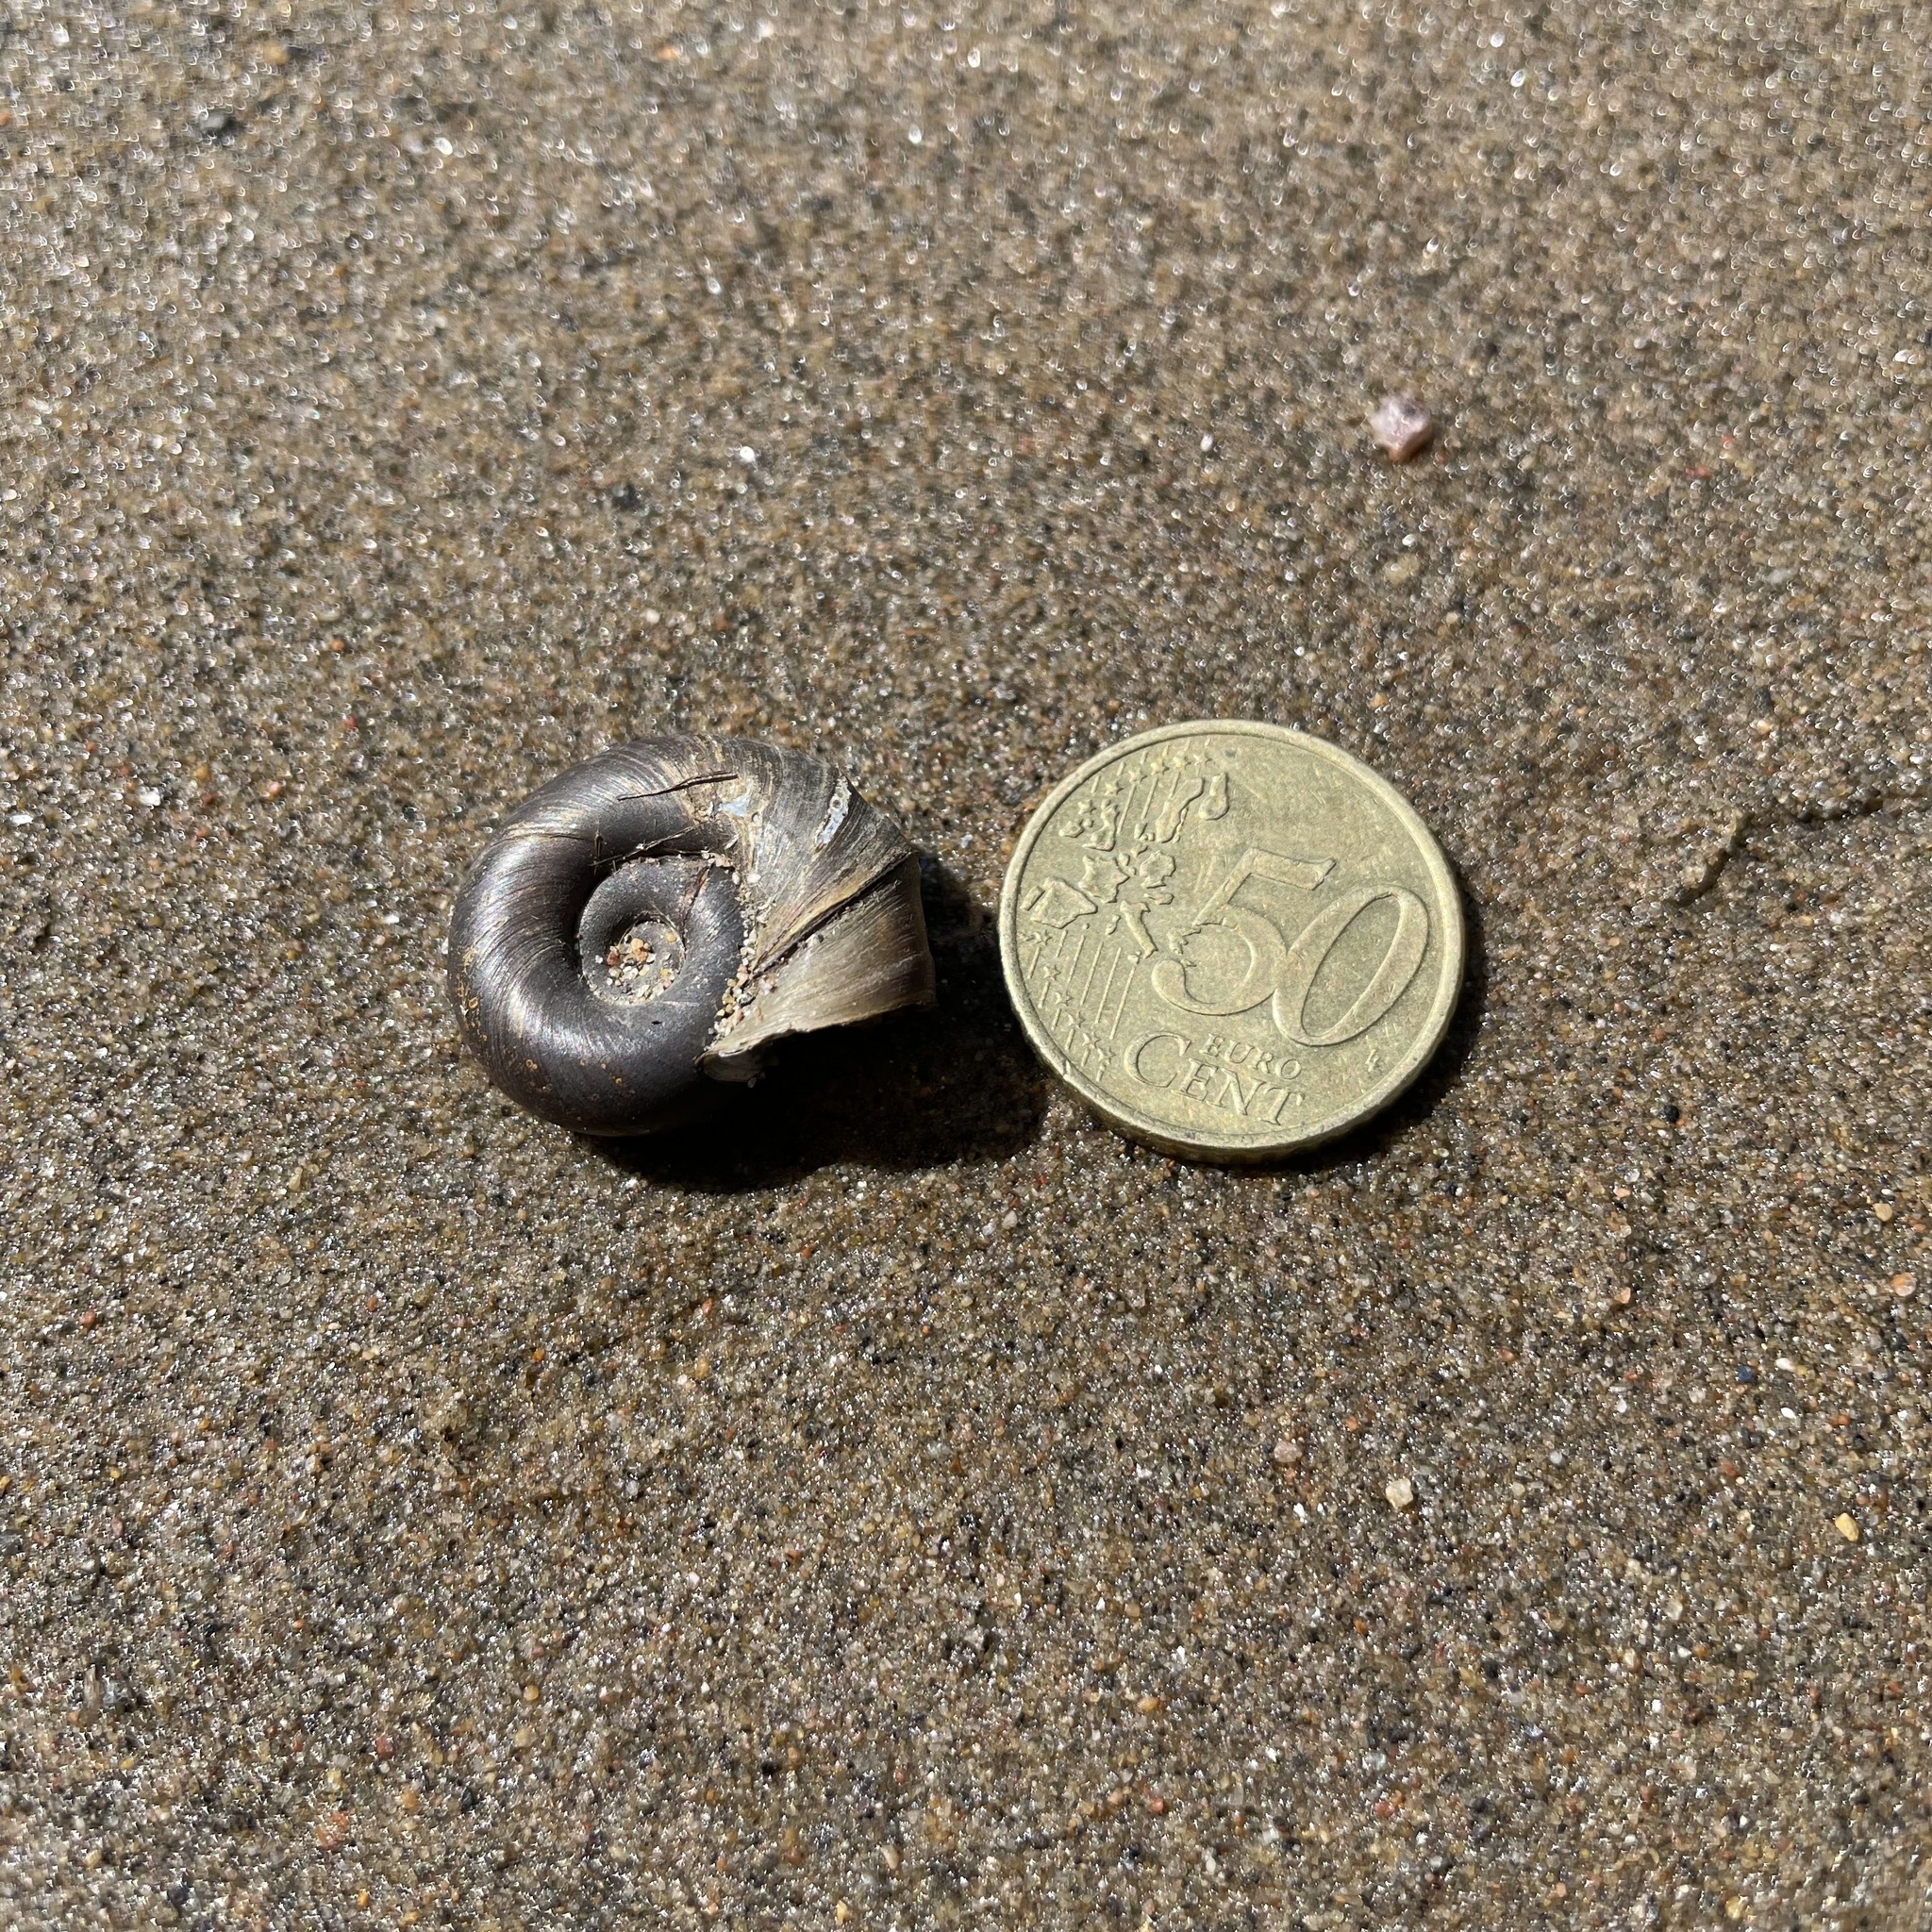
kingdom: Animalia
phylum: Mollusca
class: Gastropoda
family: Planorbidae
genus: Planorbarius
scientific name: Planorbarius corneus
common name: Great ramshorn
